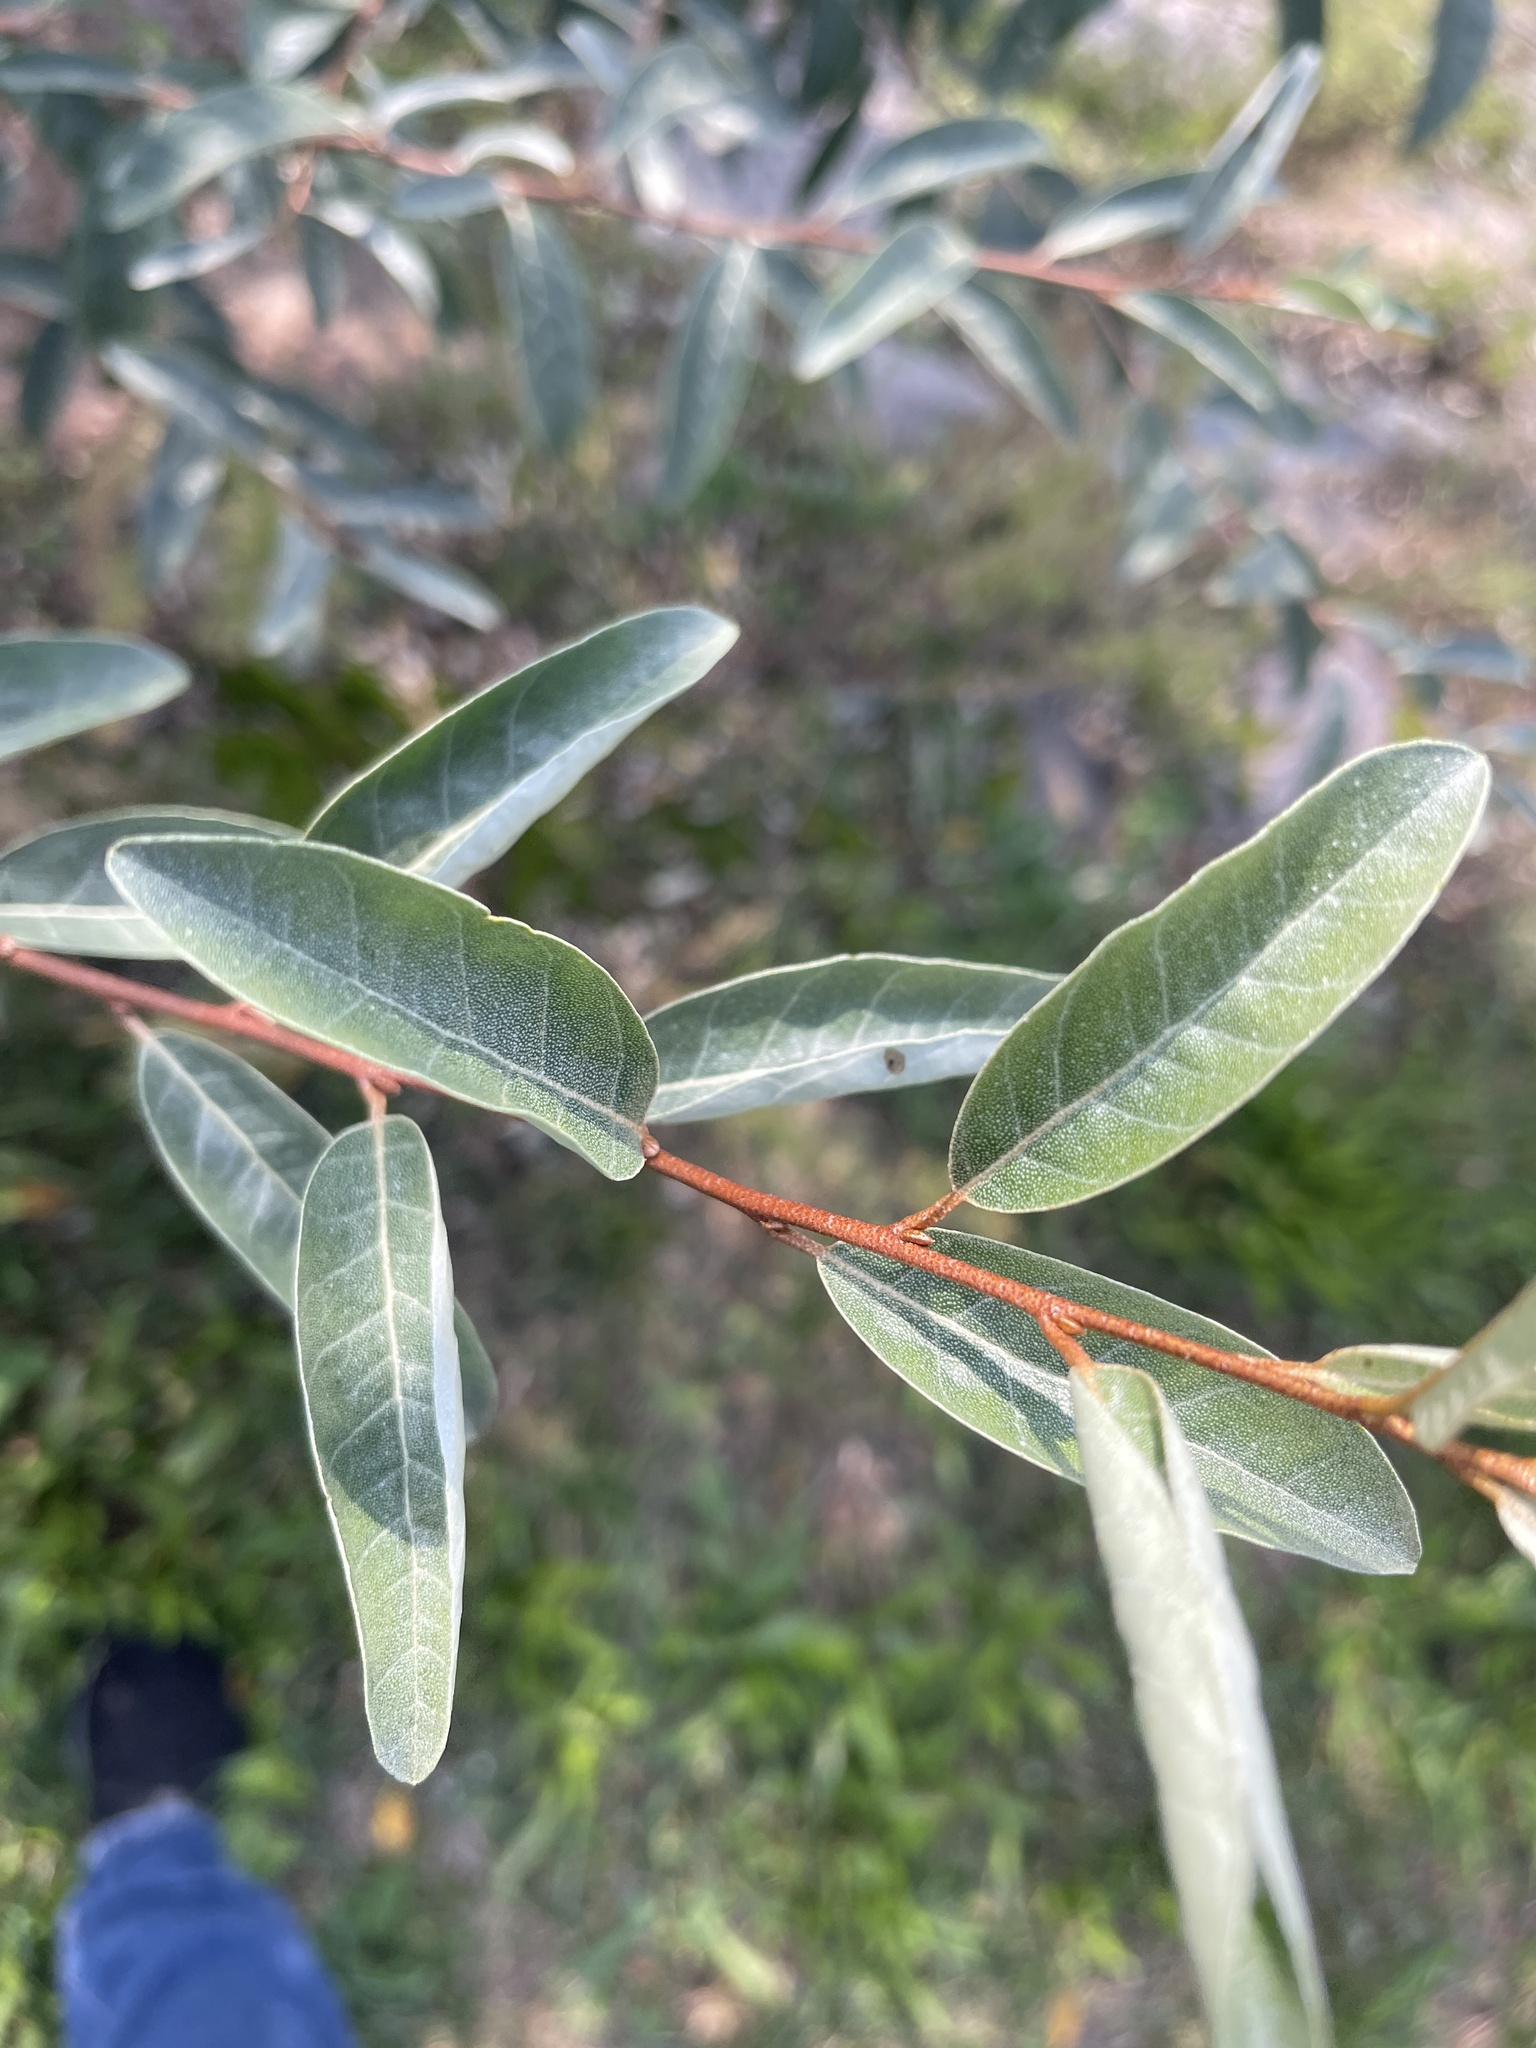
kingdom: Plantae
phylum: Tracheophyta
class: Magnoliopsida
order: Rosales
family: Elaeagnaceae
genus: Elaeagnus
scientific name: Elaeagnus umbellata
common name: Autumn olive
